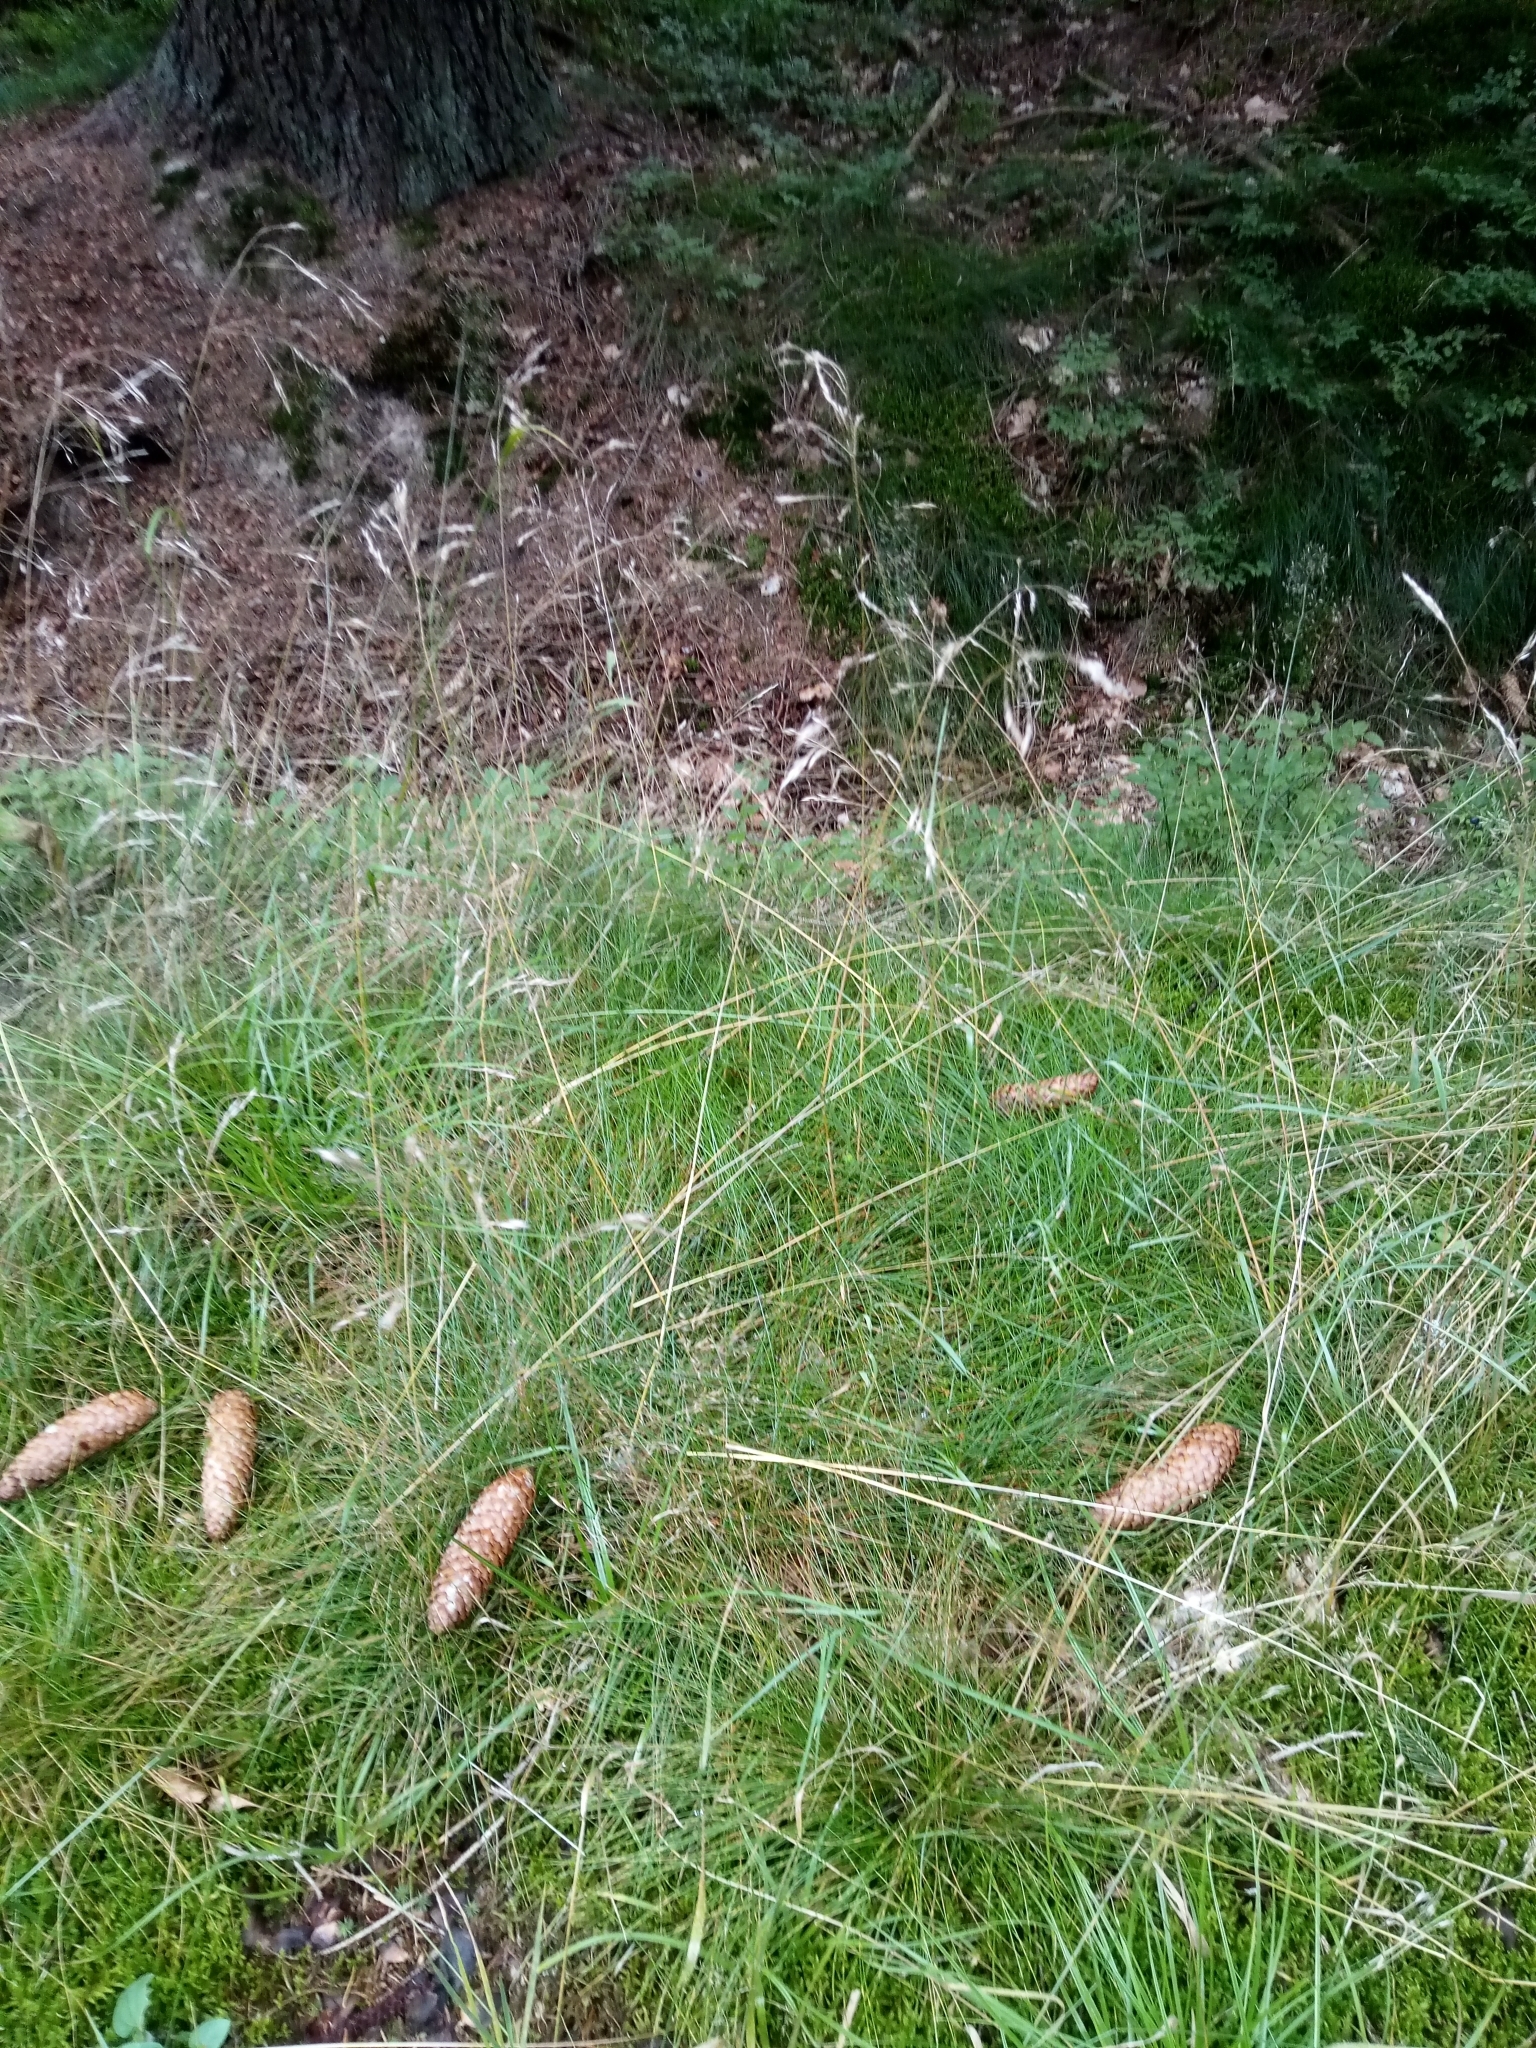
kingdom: Plantae
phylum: Tracheophyta
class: Liliopsida
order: Poales
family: Poaceae
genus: Avenella
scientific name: Avenella flexuosa
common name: Wavy hairgrass
